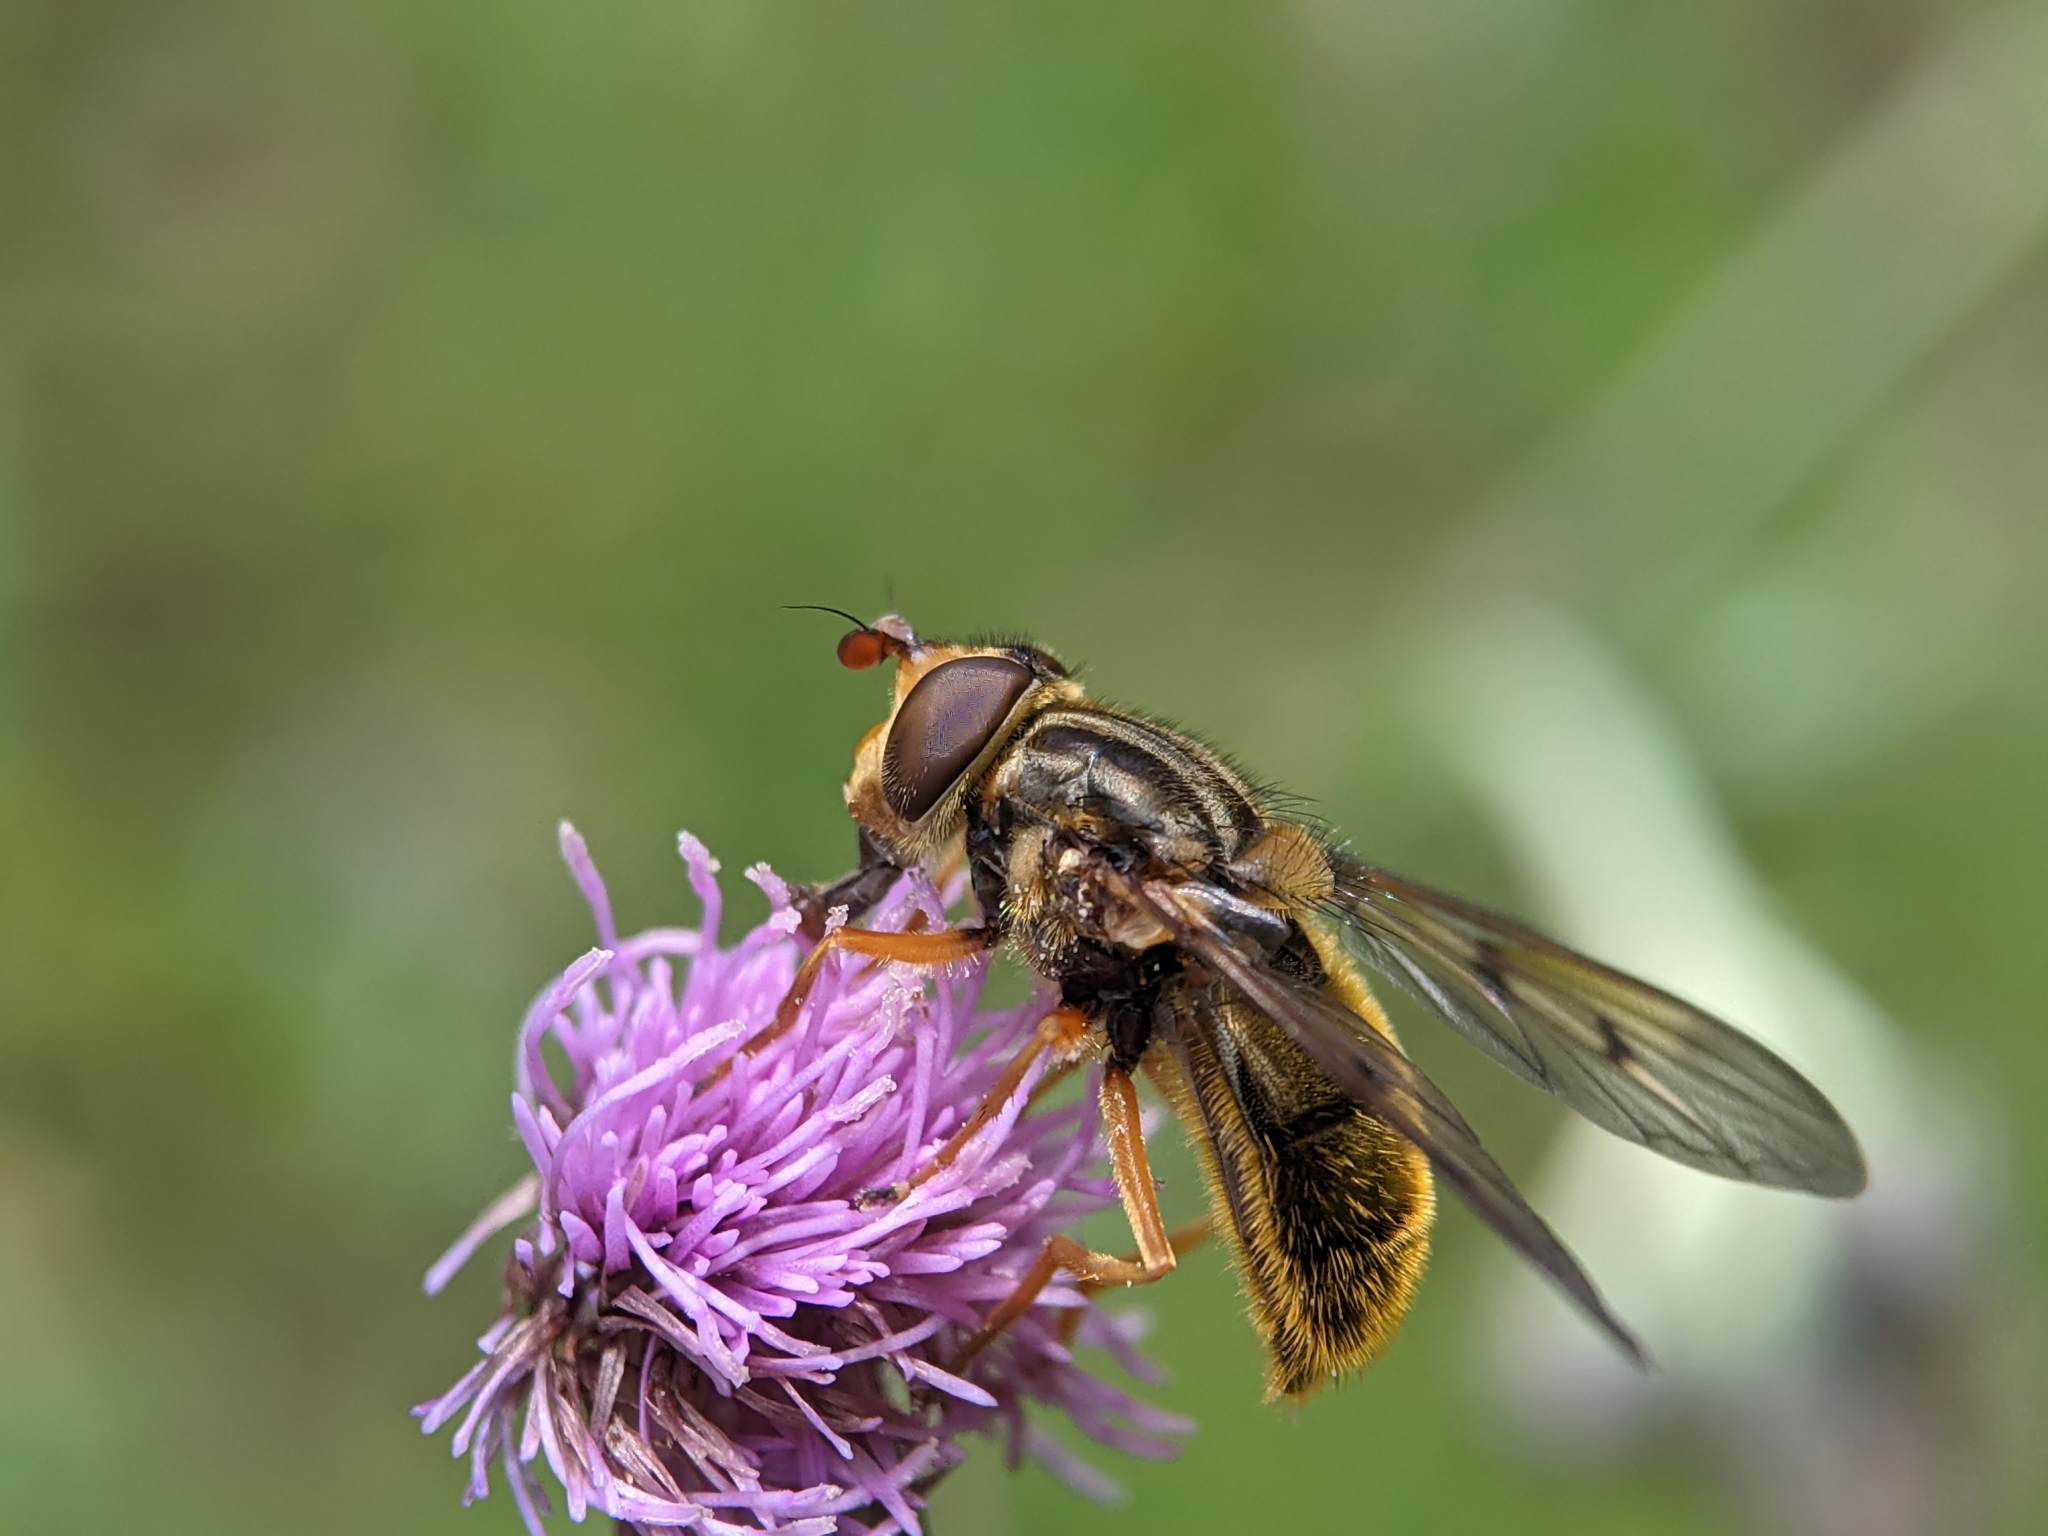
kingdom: Animalia
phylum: Arthropoda
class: Insecta
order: Diptera
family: Syrphidae
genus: Ferdinandea
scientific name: Ferdinandea cuprea
